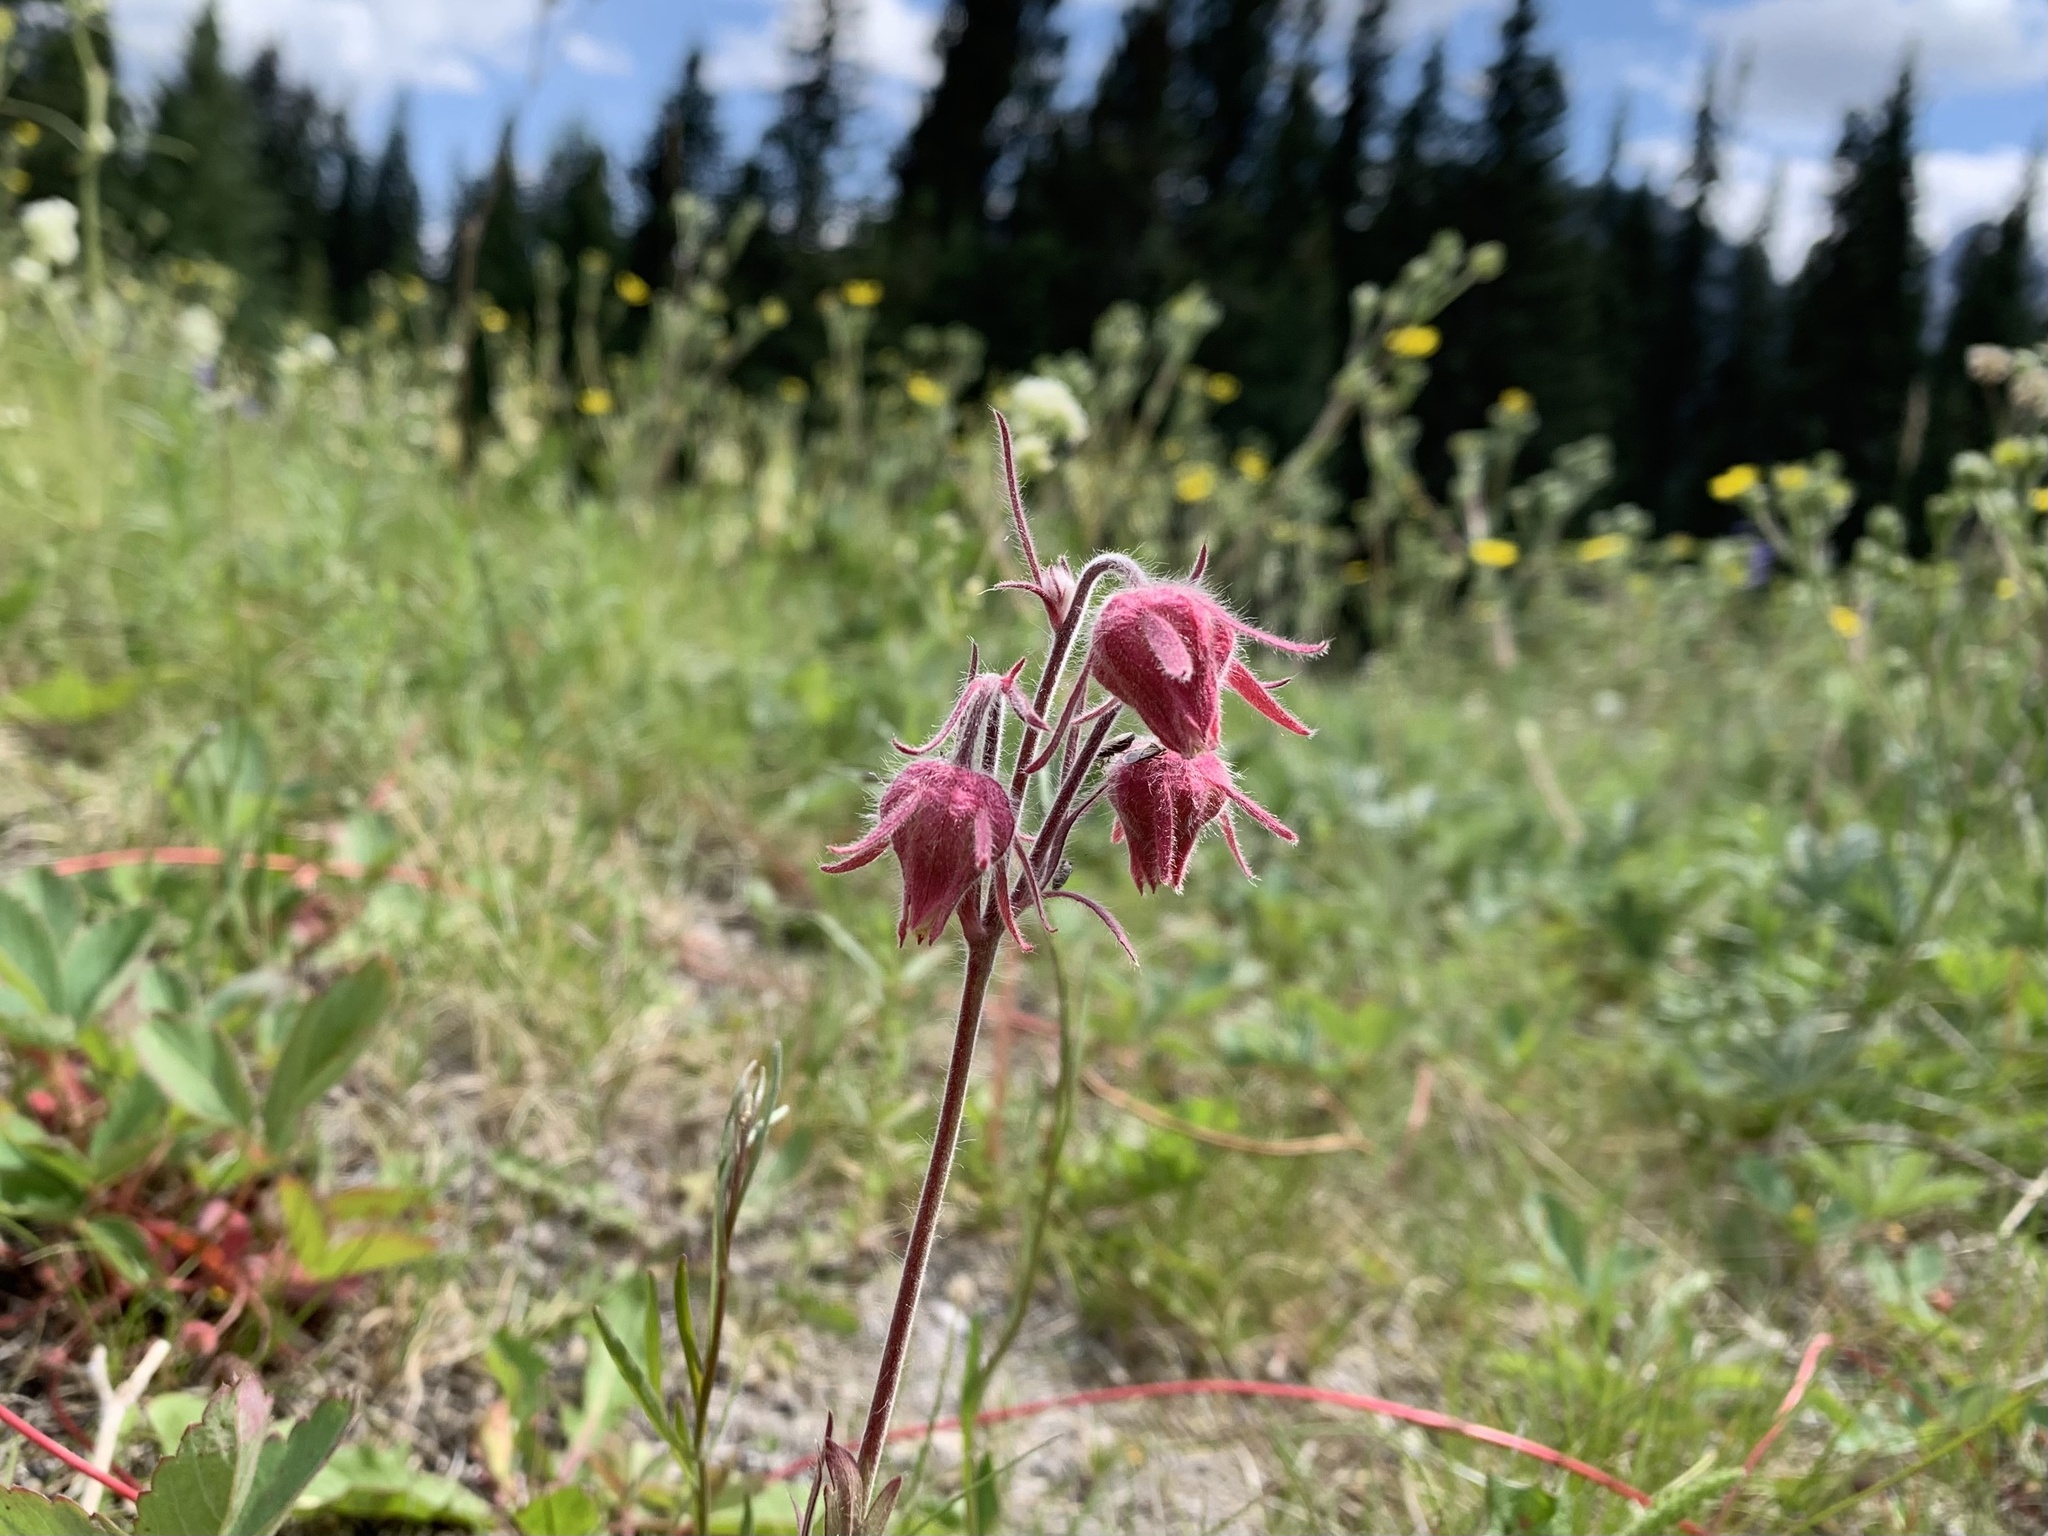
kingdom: Plantae
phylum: Tracheophyta
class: Magnoliopsida
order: Rosales
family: Rosaceae
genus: Geum
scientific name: Geum triflorum
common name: Old man's whiskers
